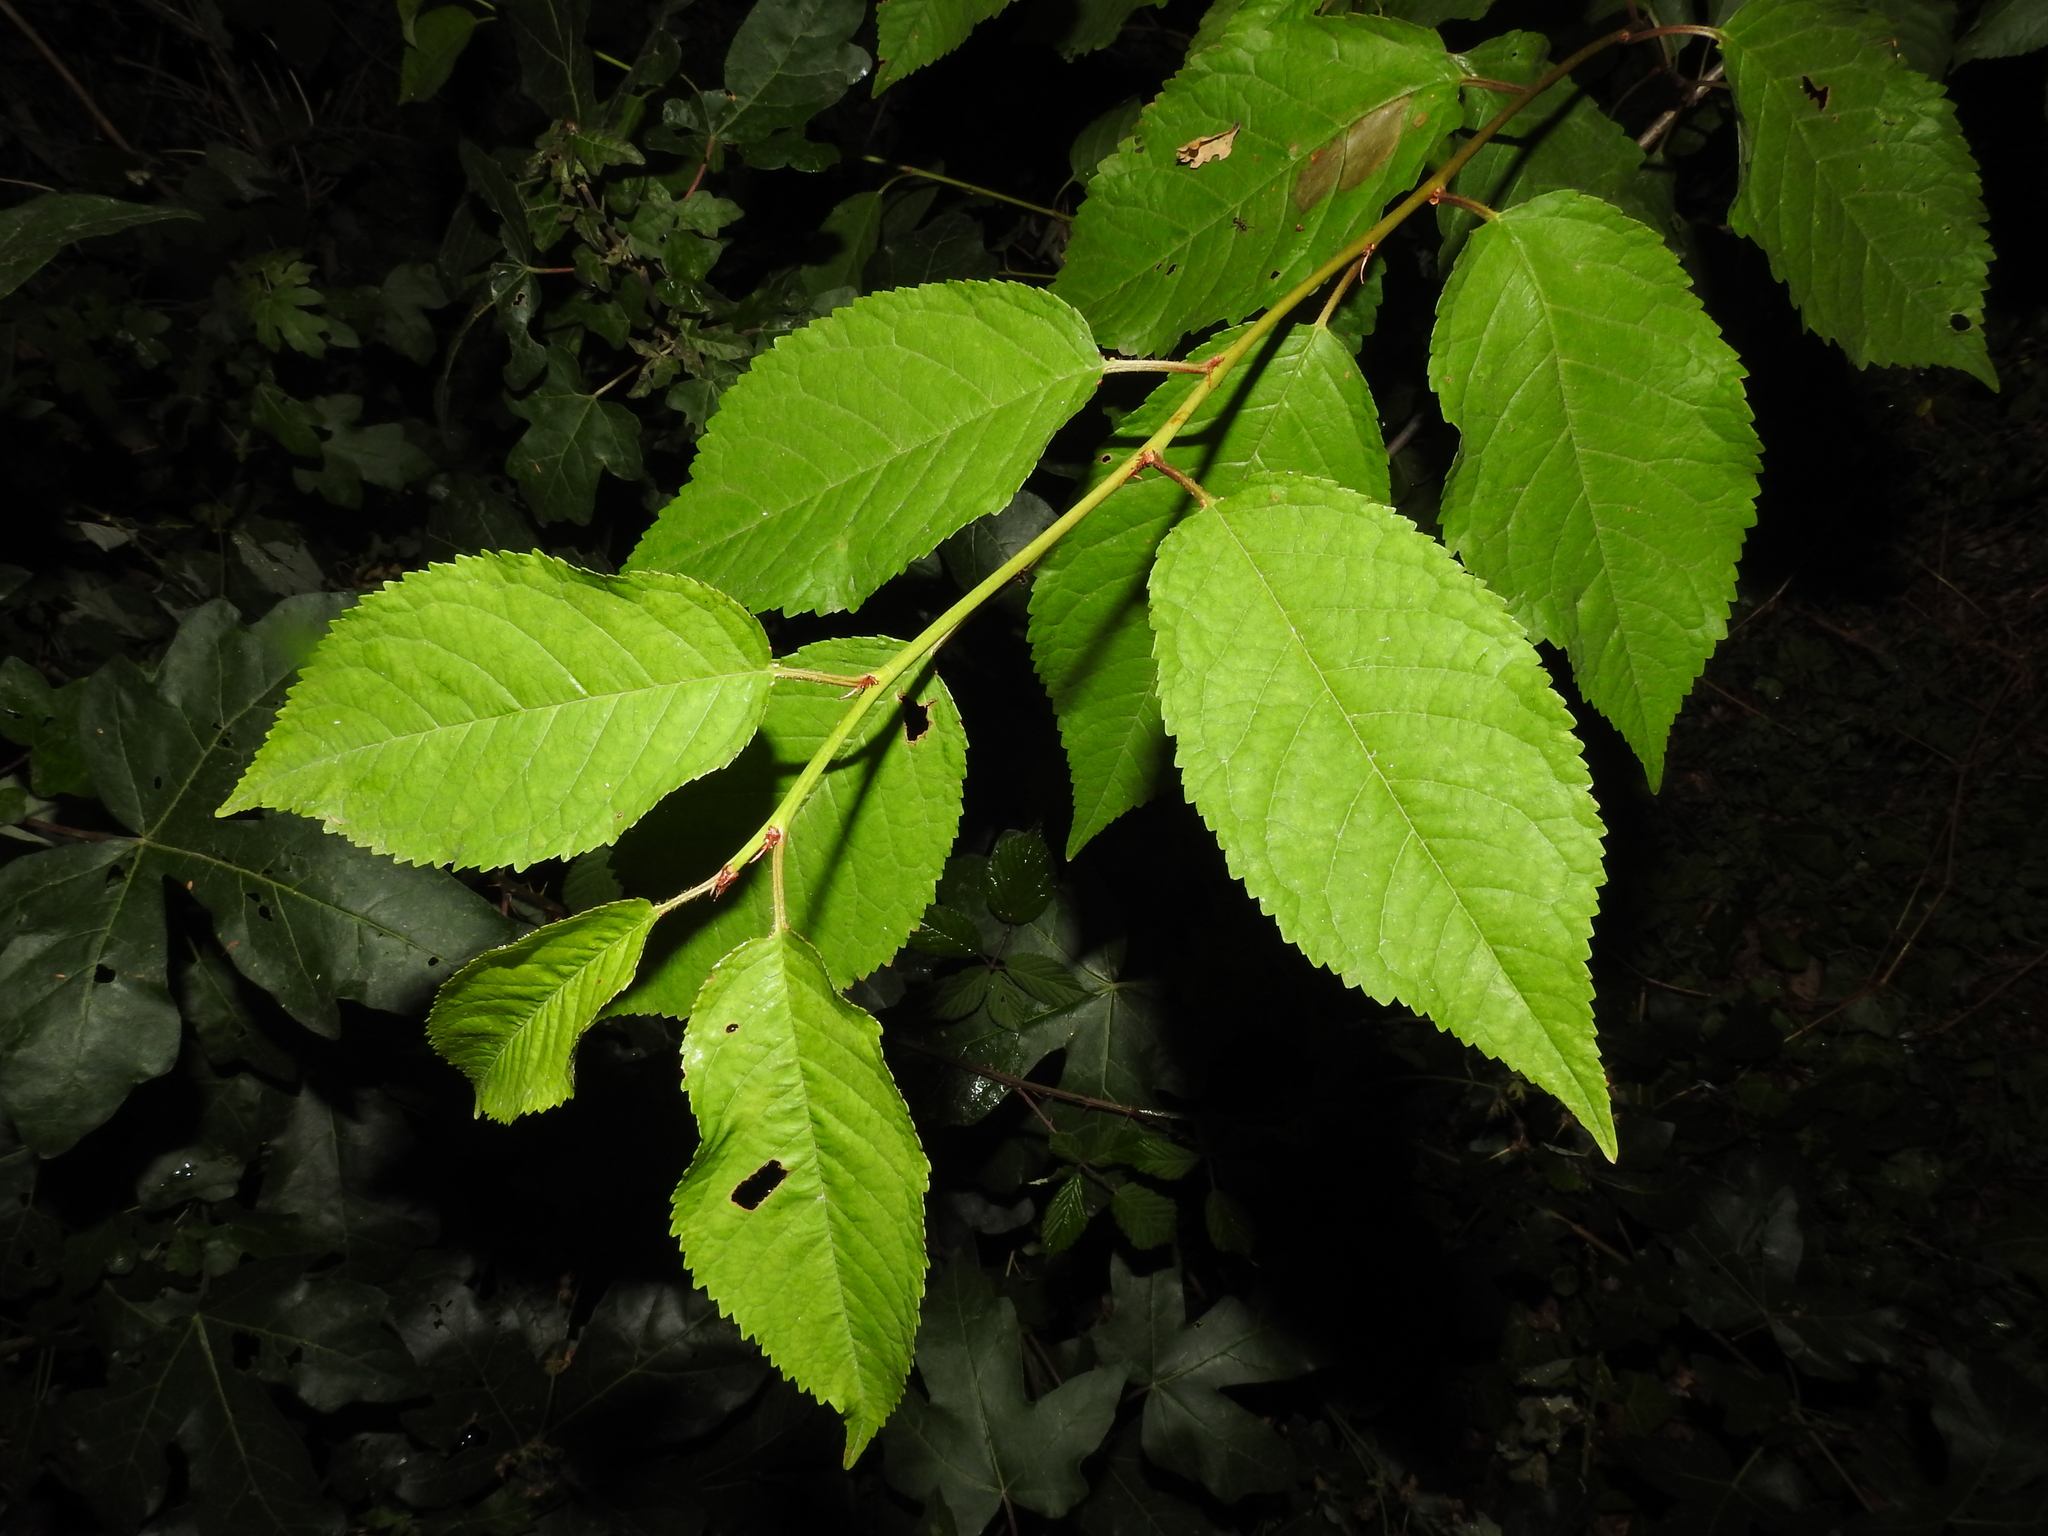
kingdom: Plantae
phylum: Tracheophyta
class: Magnoliopsida
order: Rosales
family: Rosaceae
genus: Prunus
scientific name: Prunus avium
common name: Sweet cherry
